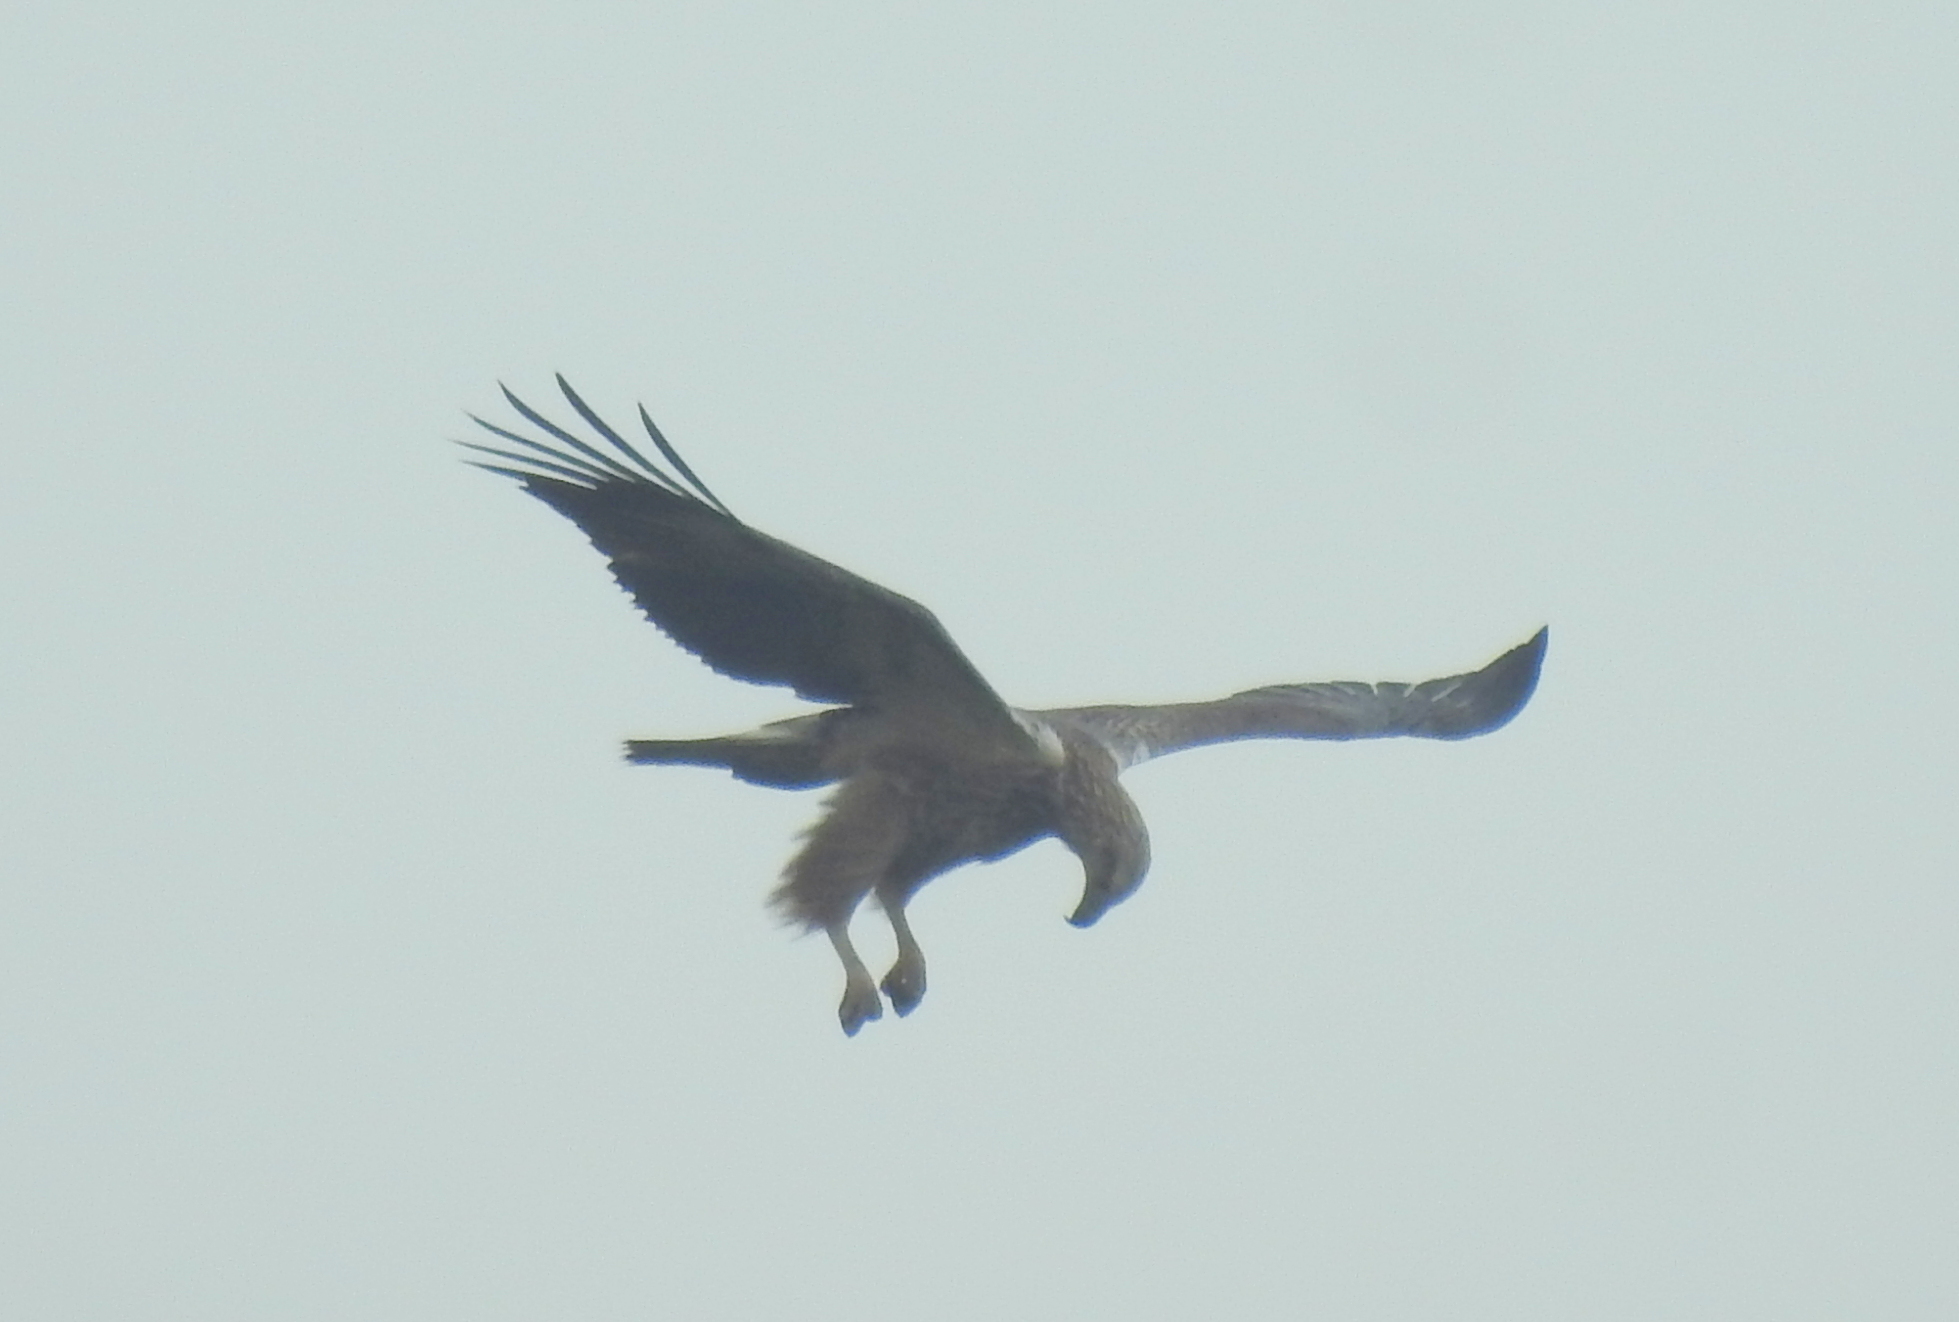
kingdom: Animalia
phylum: Chordata
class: Aves
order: Accipitriformes
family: Accipitridae
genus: Haliaeetus
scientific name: Haliaeetus leucogaster
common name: White-bellied sea eagle
